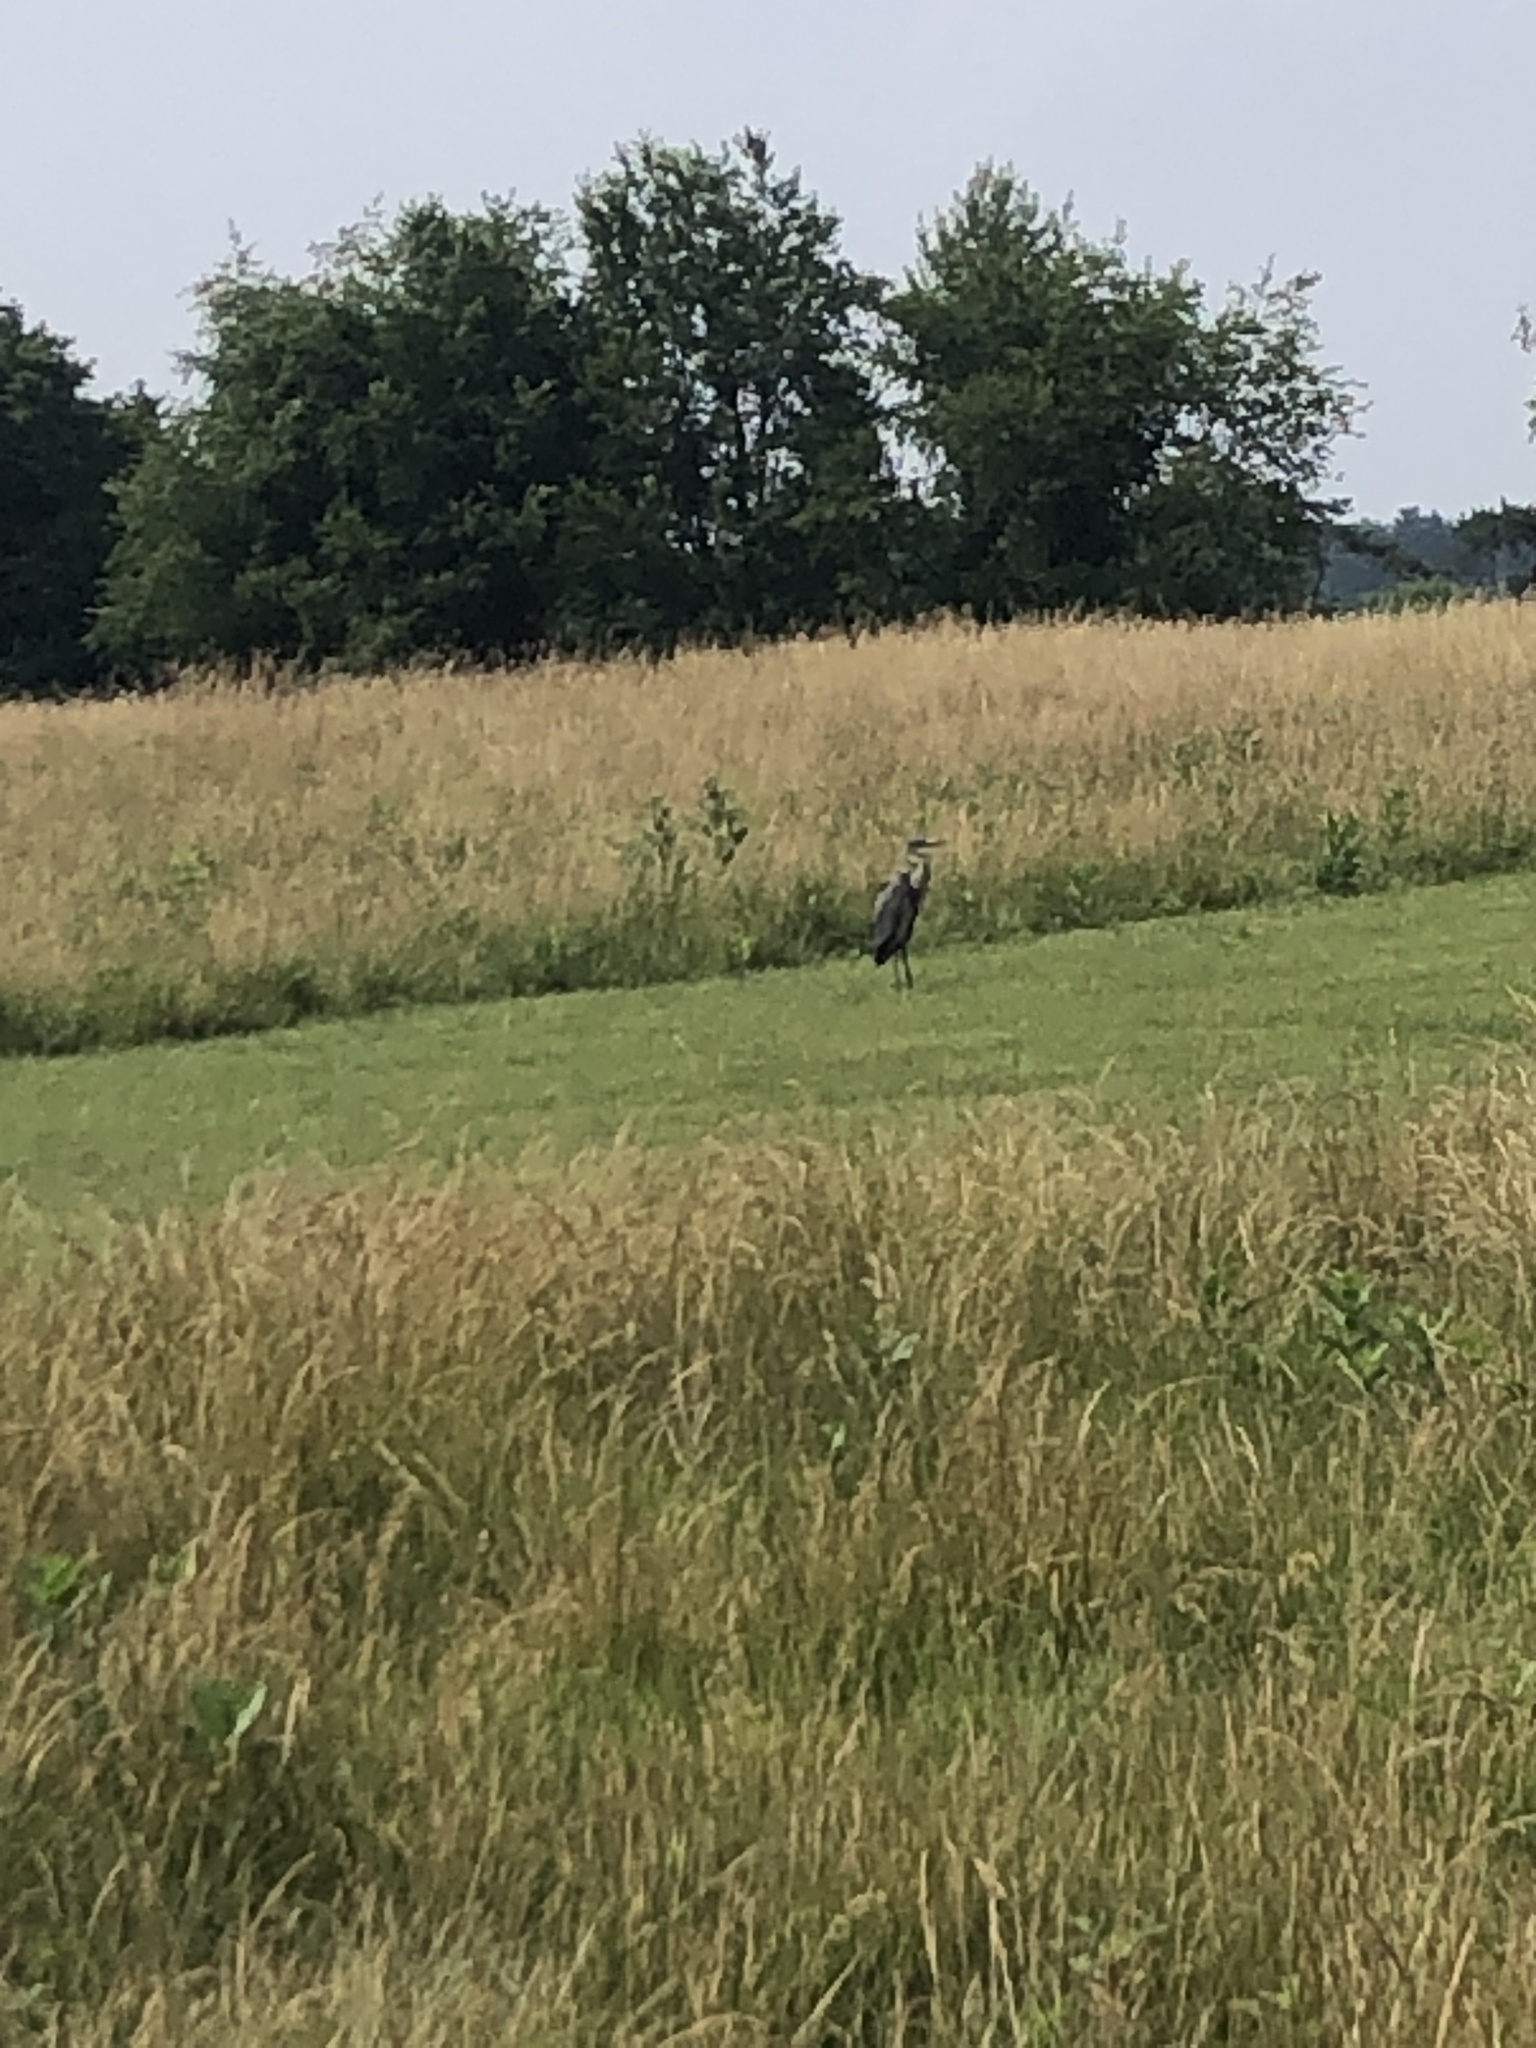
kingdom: Animalia
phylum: Chordata
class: Aves
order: Pelecaniformes
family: Ardeidae
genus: Ardea
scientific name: Ardea herodias
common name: Great blue heron
